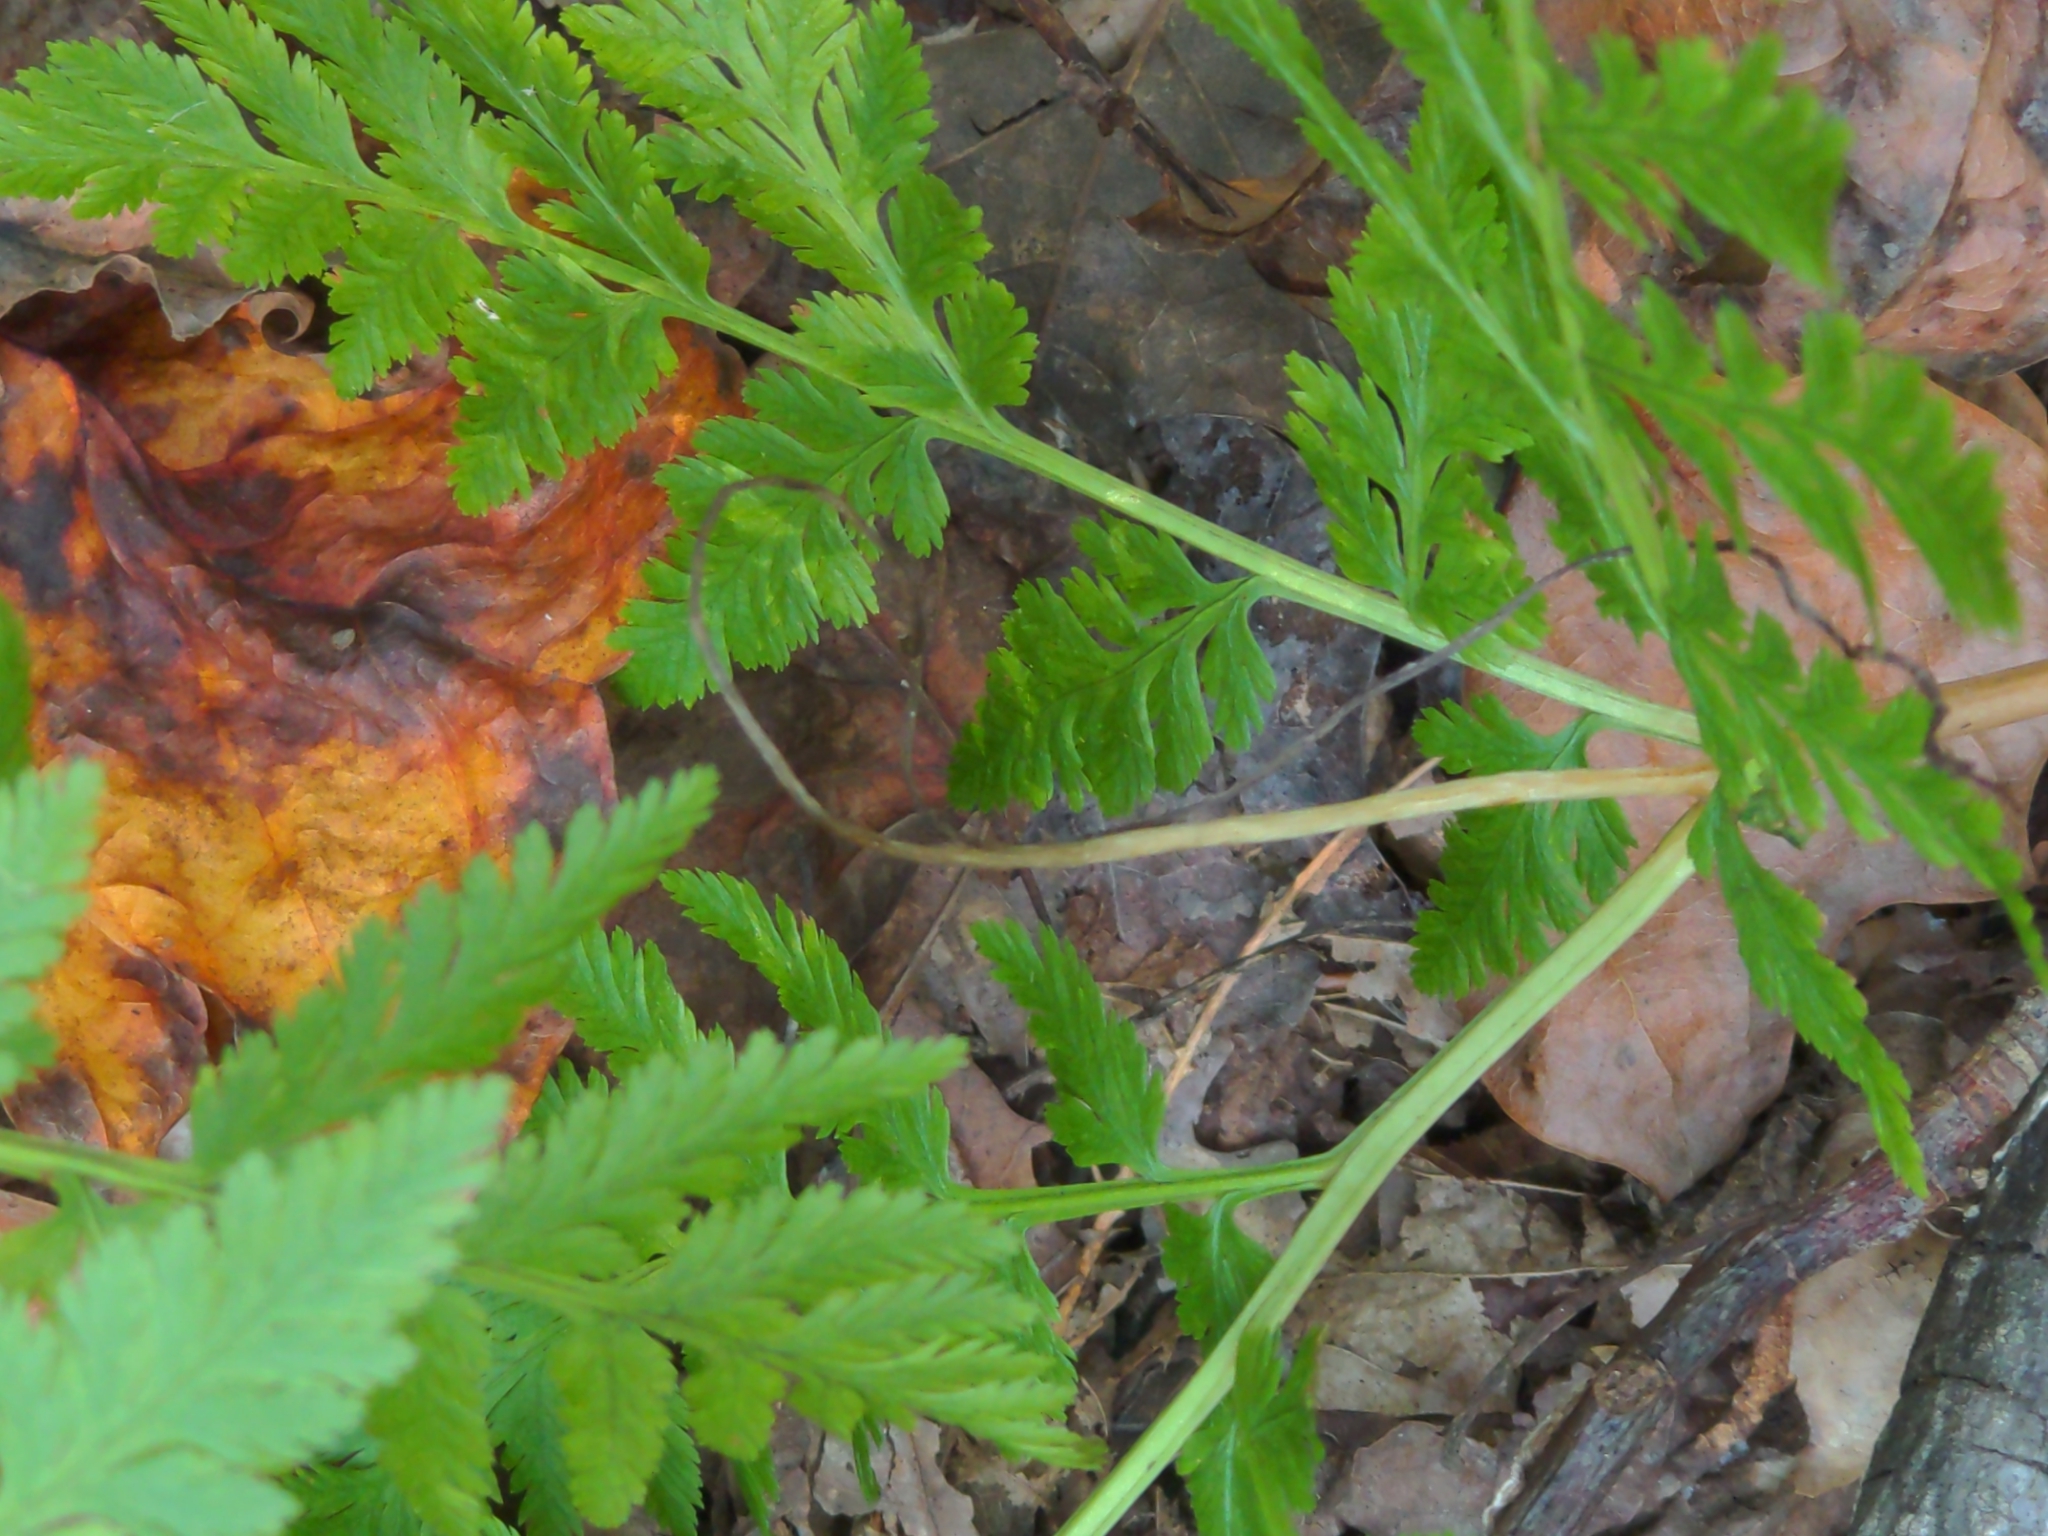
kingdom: Plantae
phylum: Tracheophyta
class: Polypodiopsida
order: Ophioglossales
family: Ophioglossaceae
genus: Botrypus
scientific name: Botrypus virginianus
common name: Common grapefern
